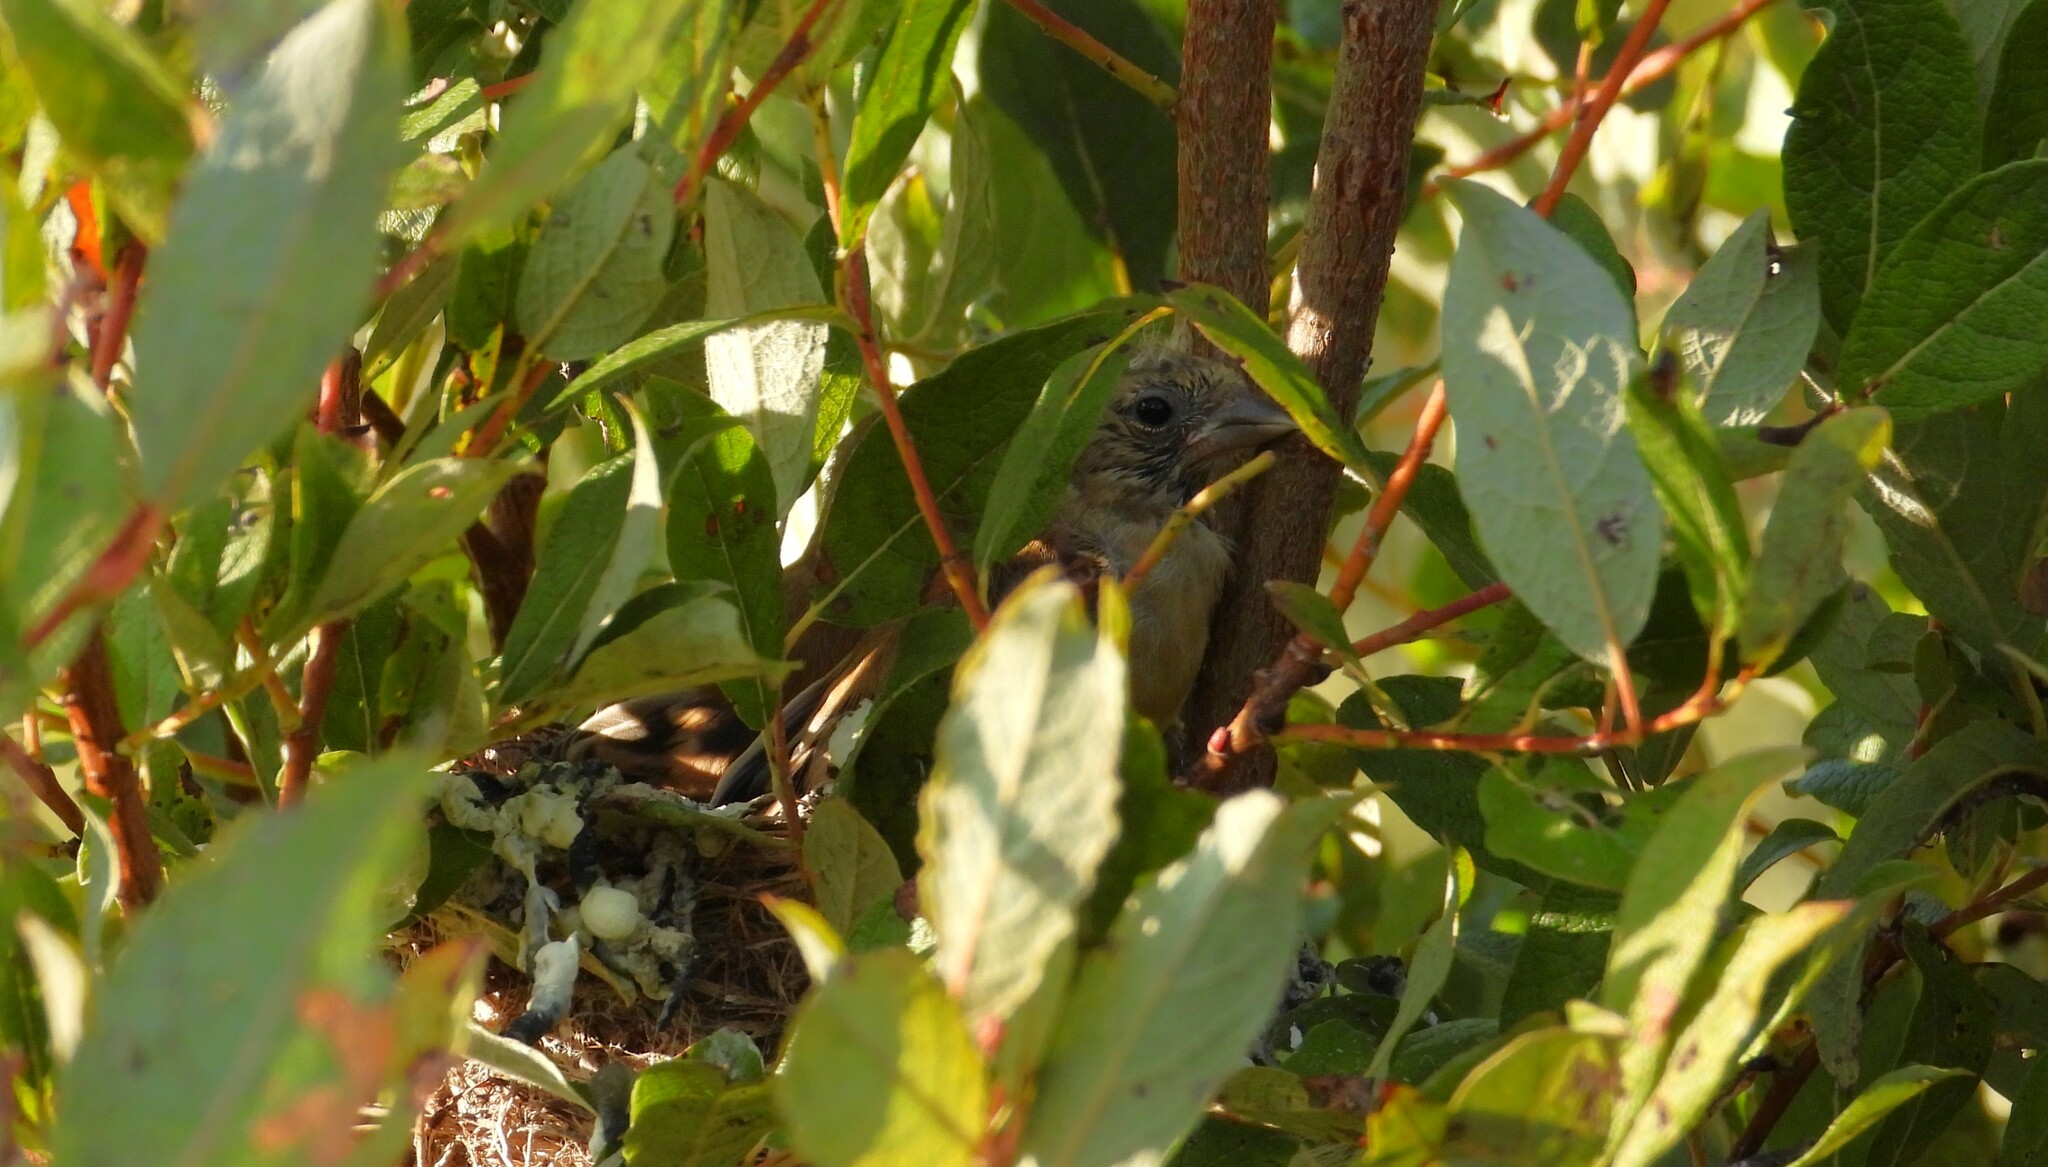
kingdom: Animalia
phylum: Chordata
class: Aves
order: Passeriformes
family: Fringillidae
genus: Spinus
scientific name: Spinus tristis
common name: American goldfinch
